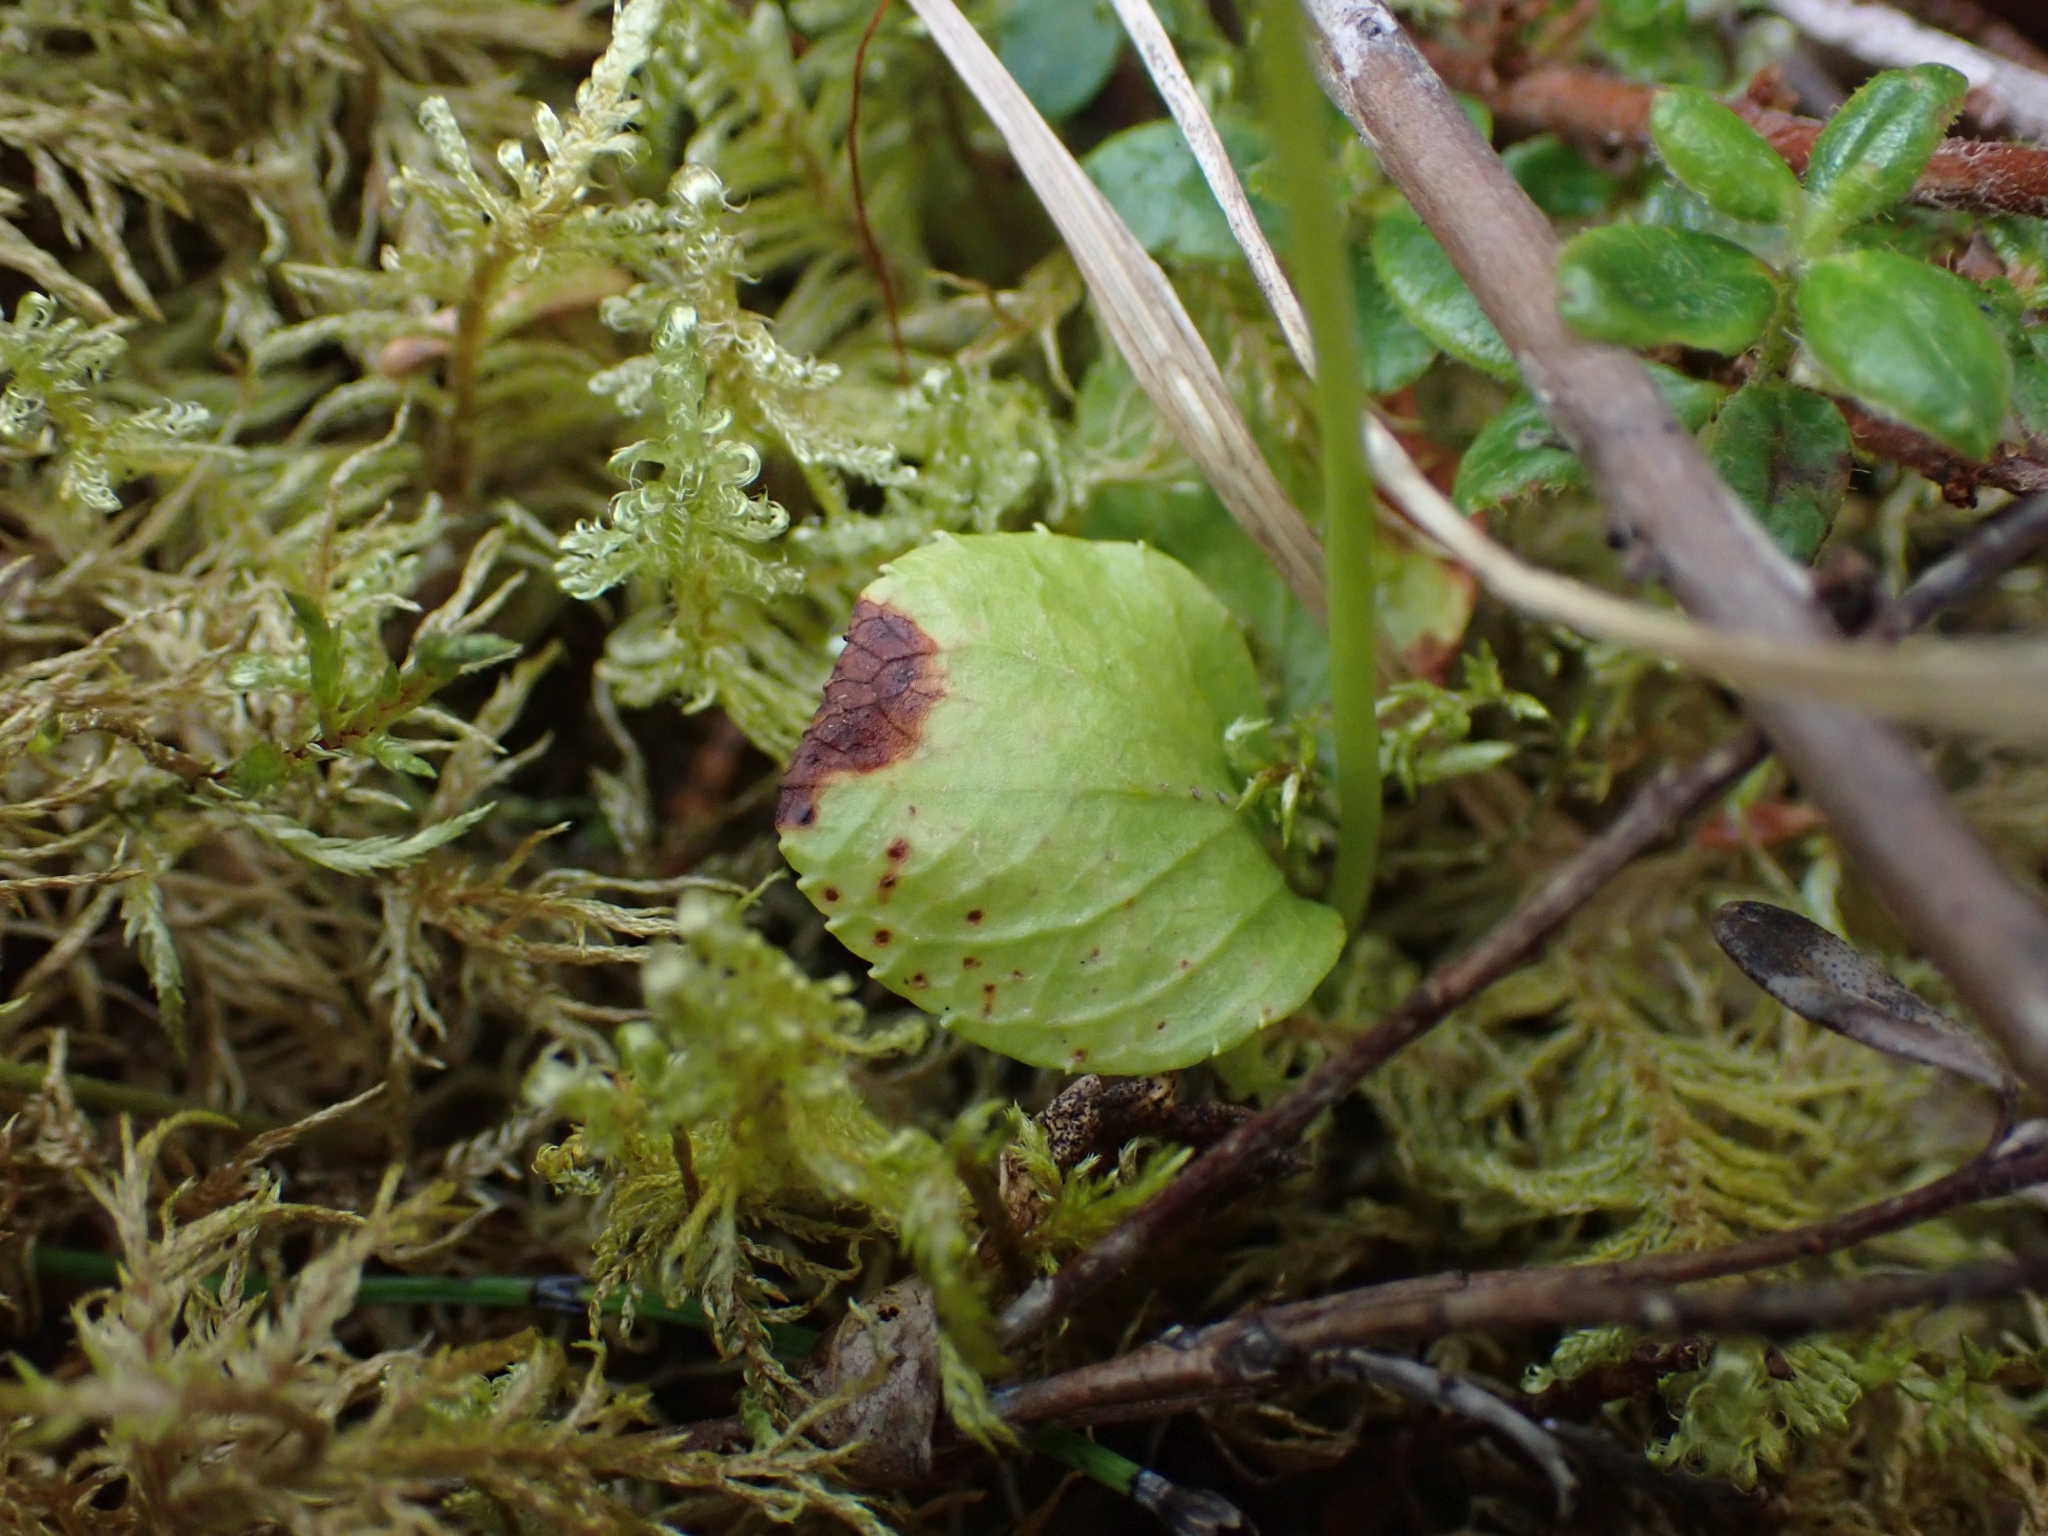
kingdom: Plantae
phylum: Tracheophyta
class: Magnoliopsida
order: Ericales
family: Ericaceae
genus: Moneses
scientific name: Moneses uniflora
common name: One-flowered wintergreen
